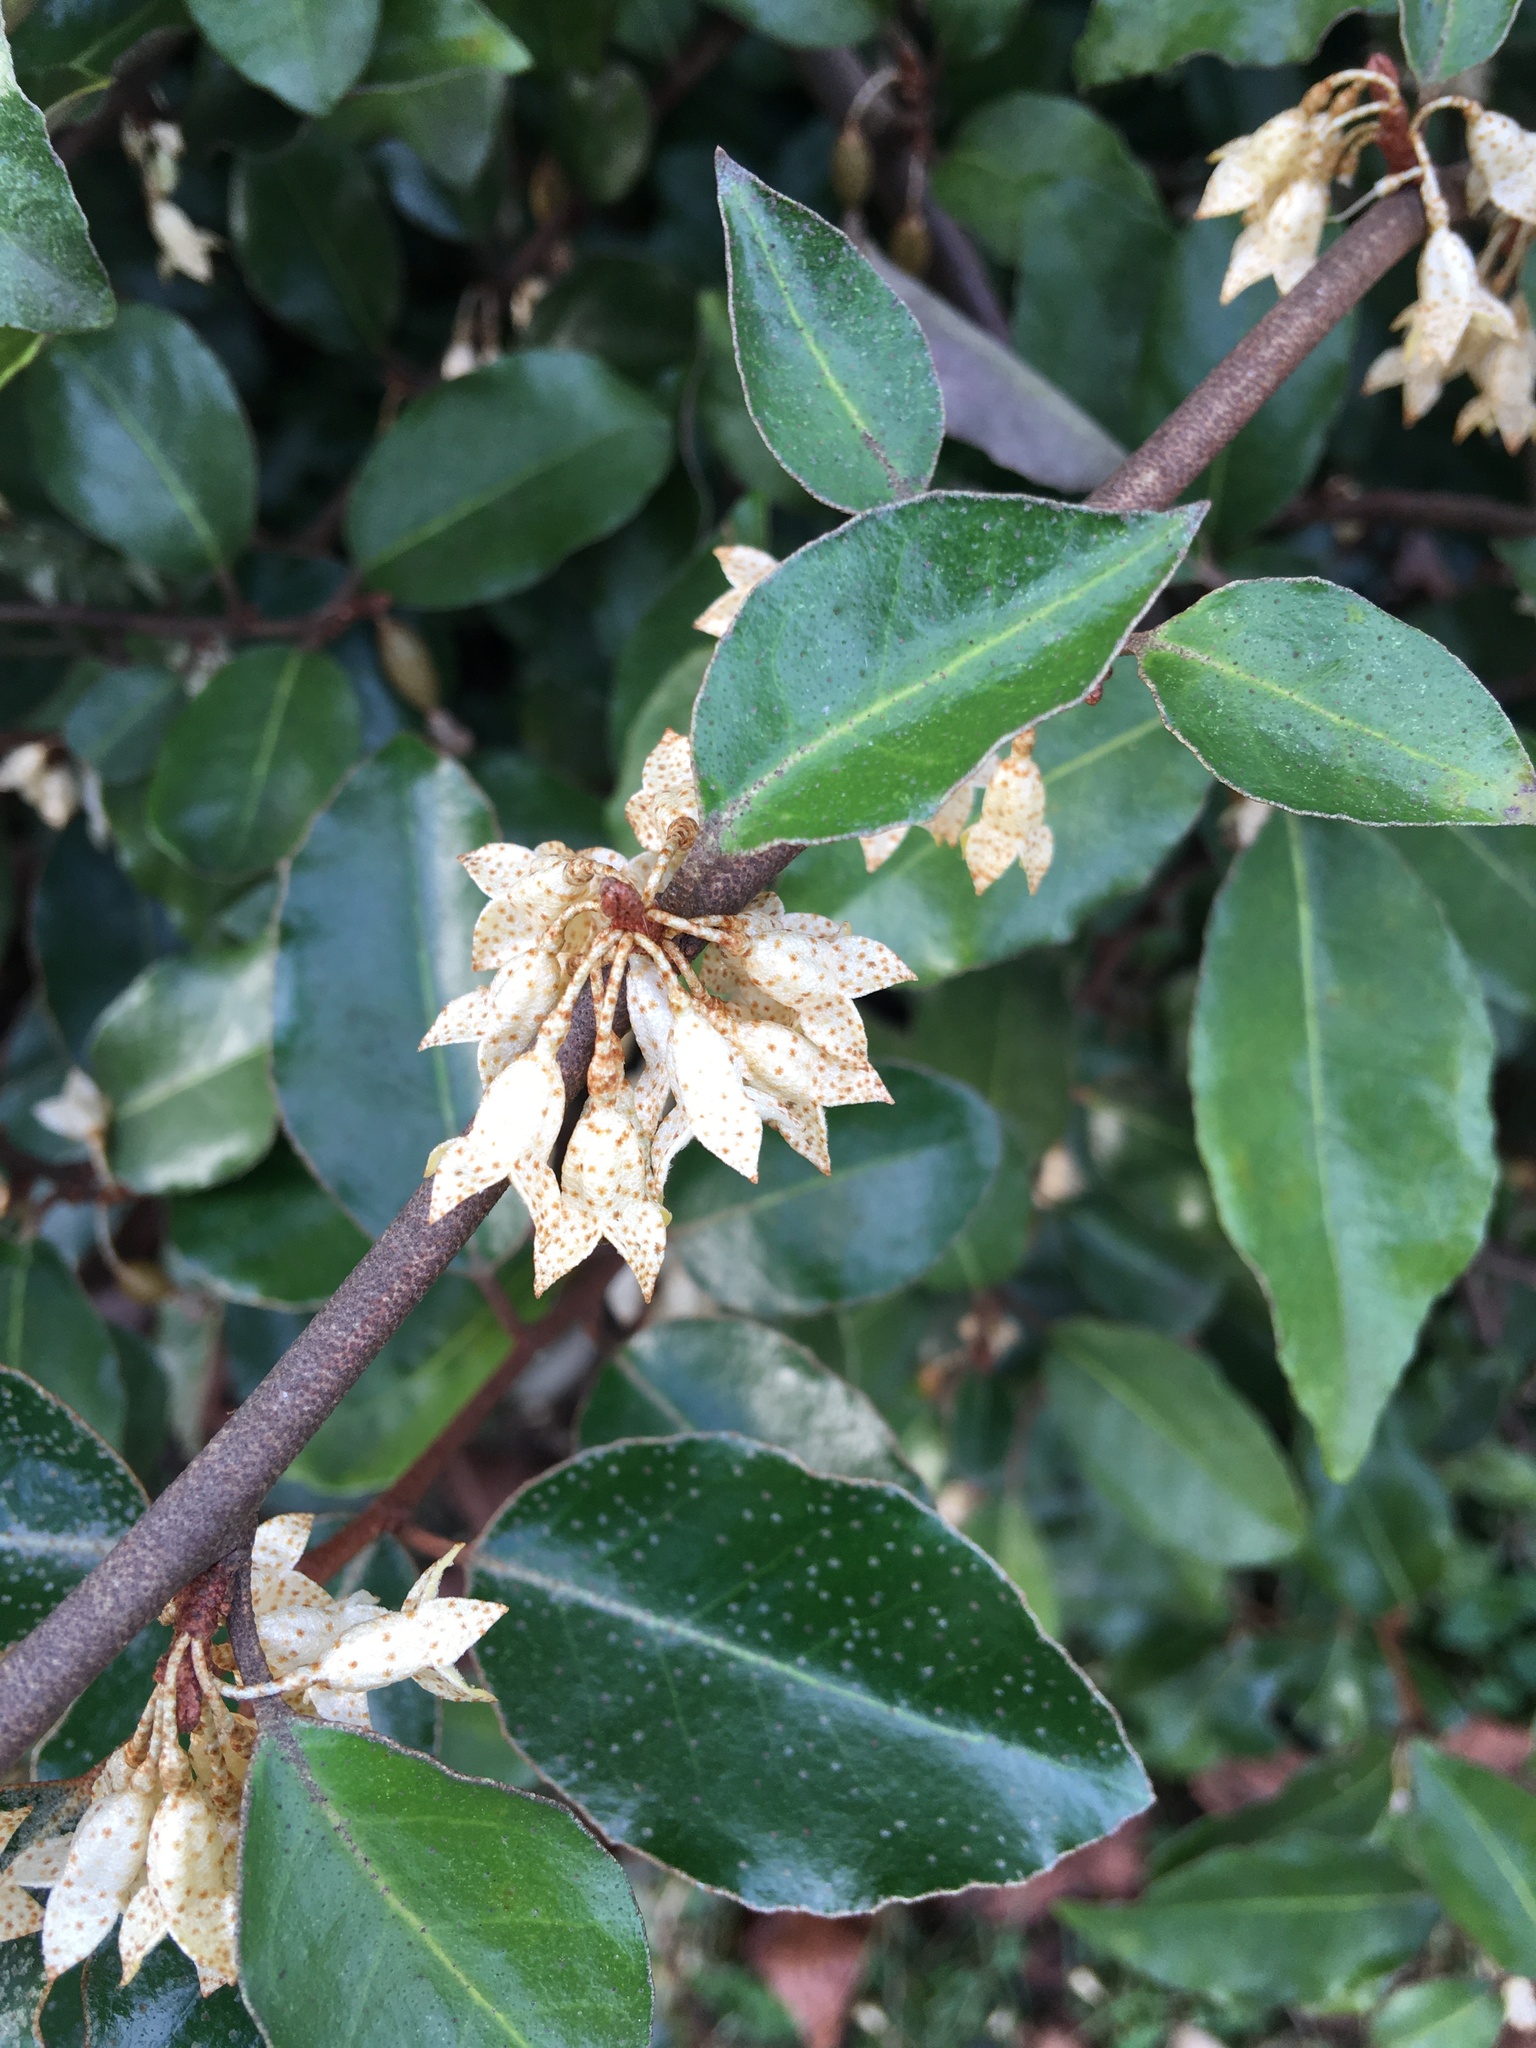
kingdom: Plantae
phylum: Tracheophyta
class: Magnoliopsida
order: Rosales
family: Elaeagnaceae
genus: Elaeagnus
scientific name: Elaeagnus pungens
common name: Spiny oleaster
